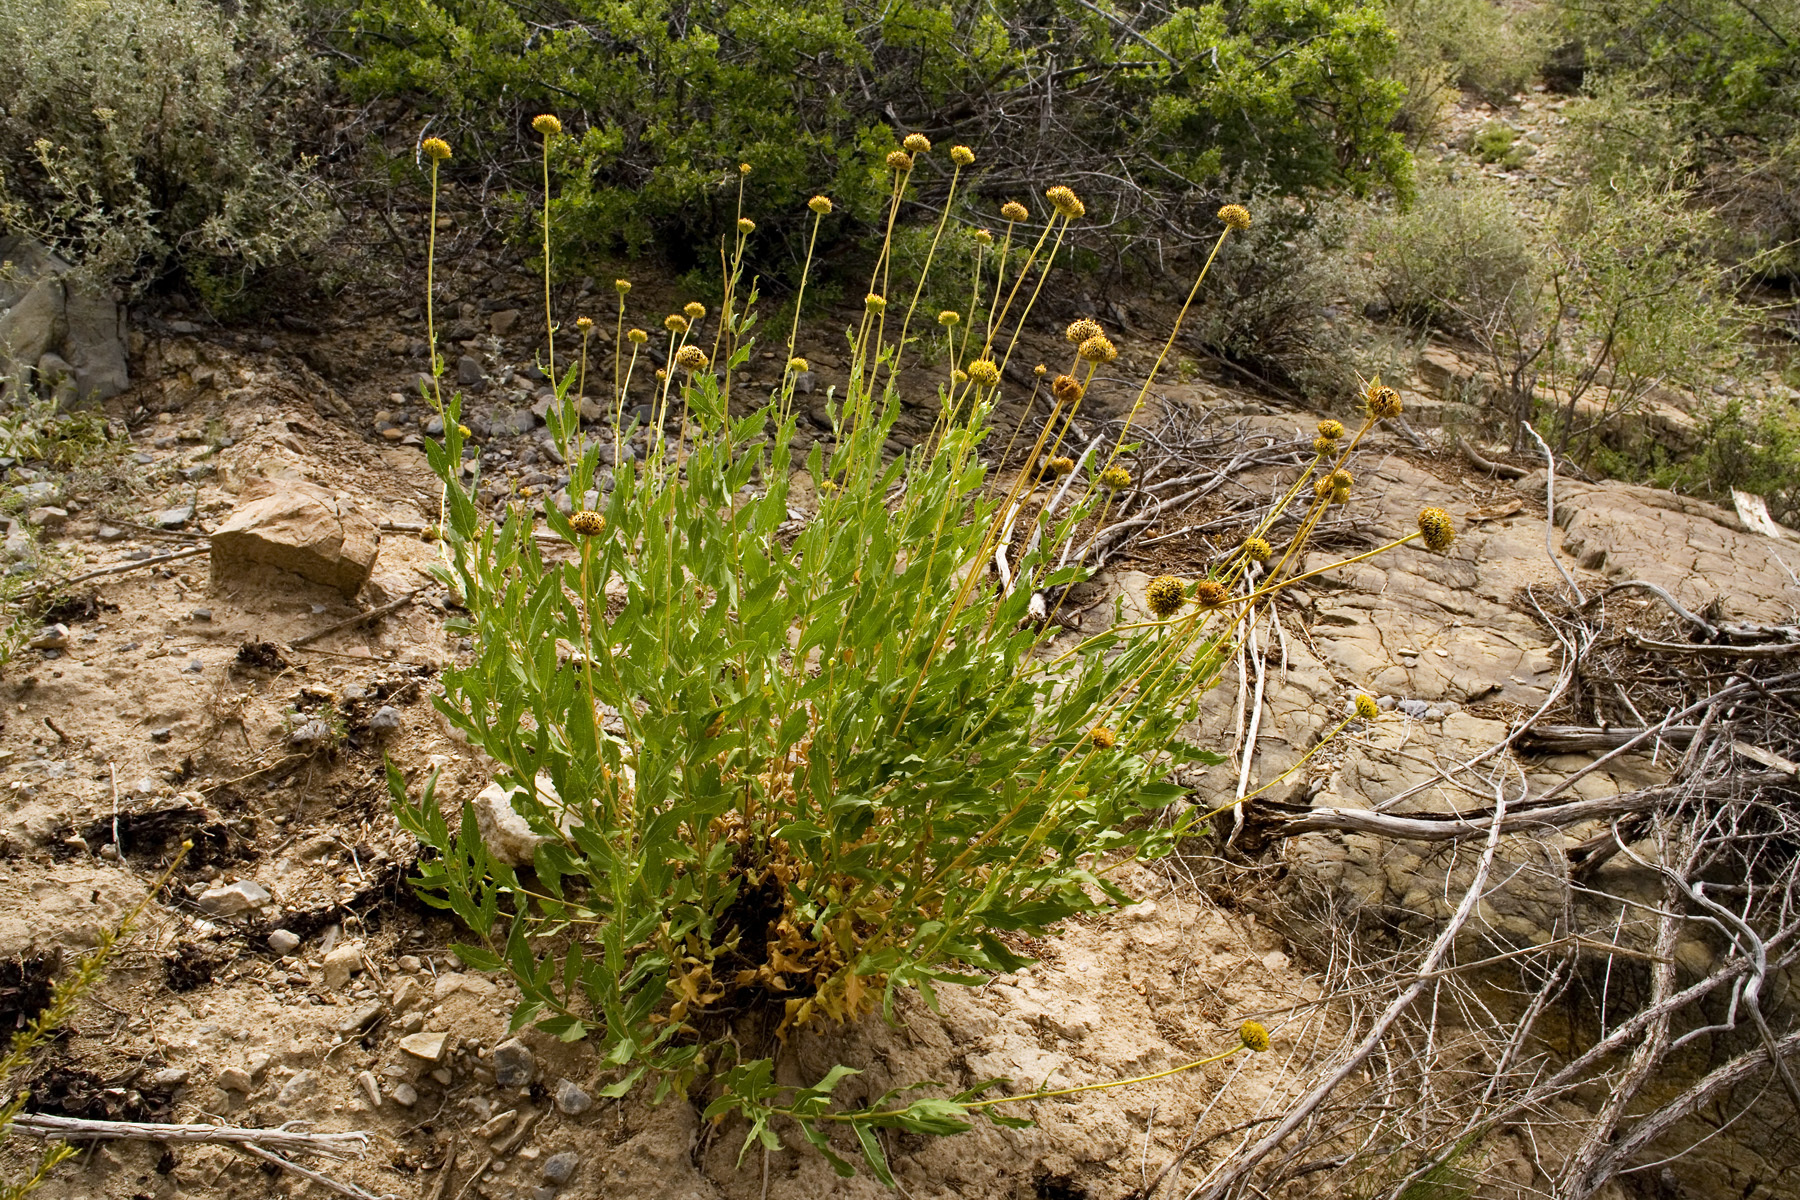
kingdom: Plantae
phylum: Tracheophyta
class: Magnoliopsida
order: Asterales
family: Asteraceae
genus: Verbesina
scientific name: Verbesina rothrockii
